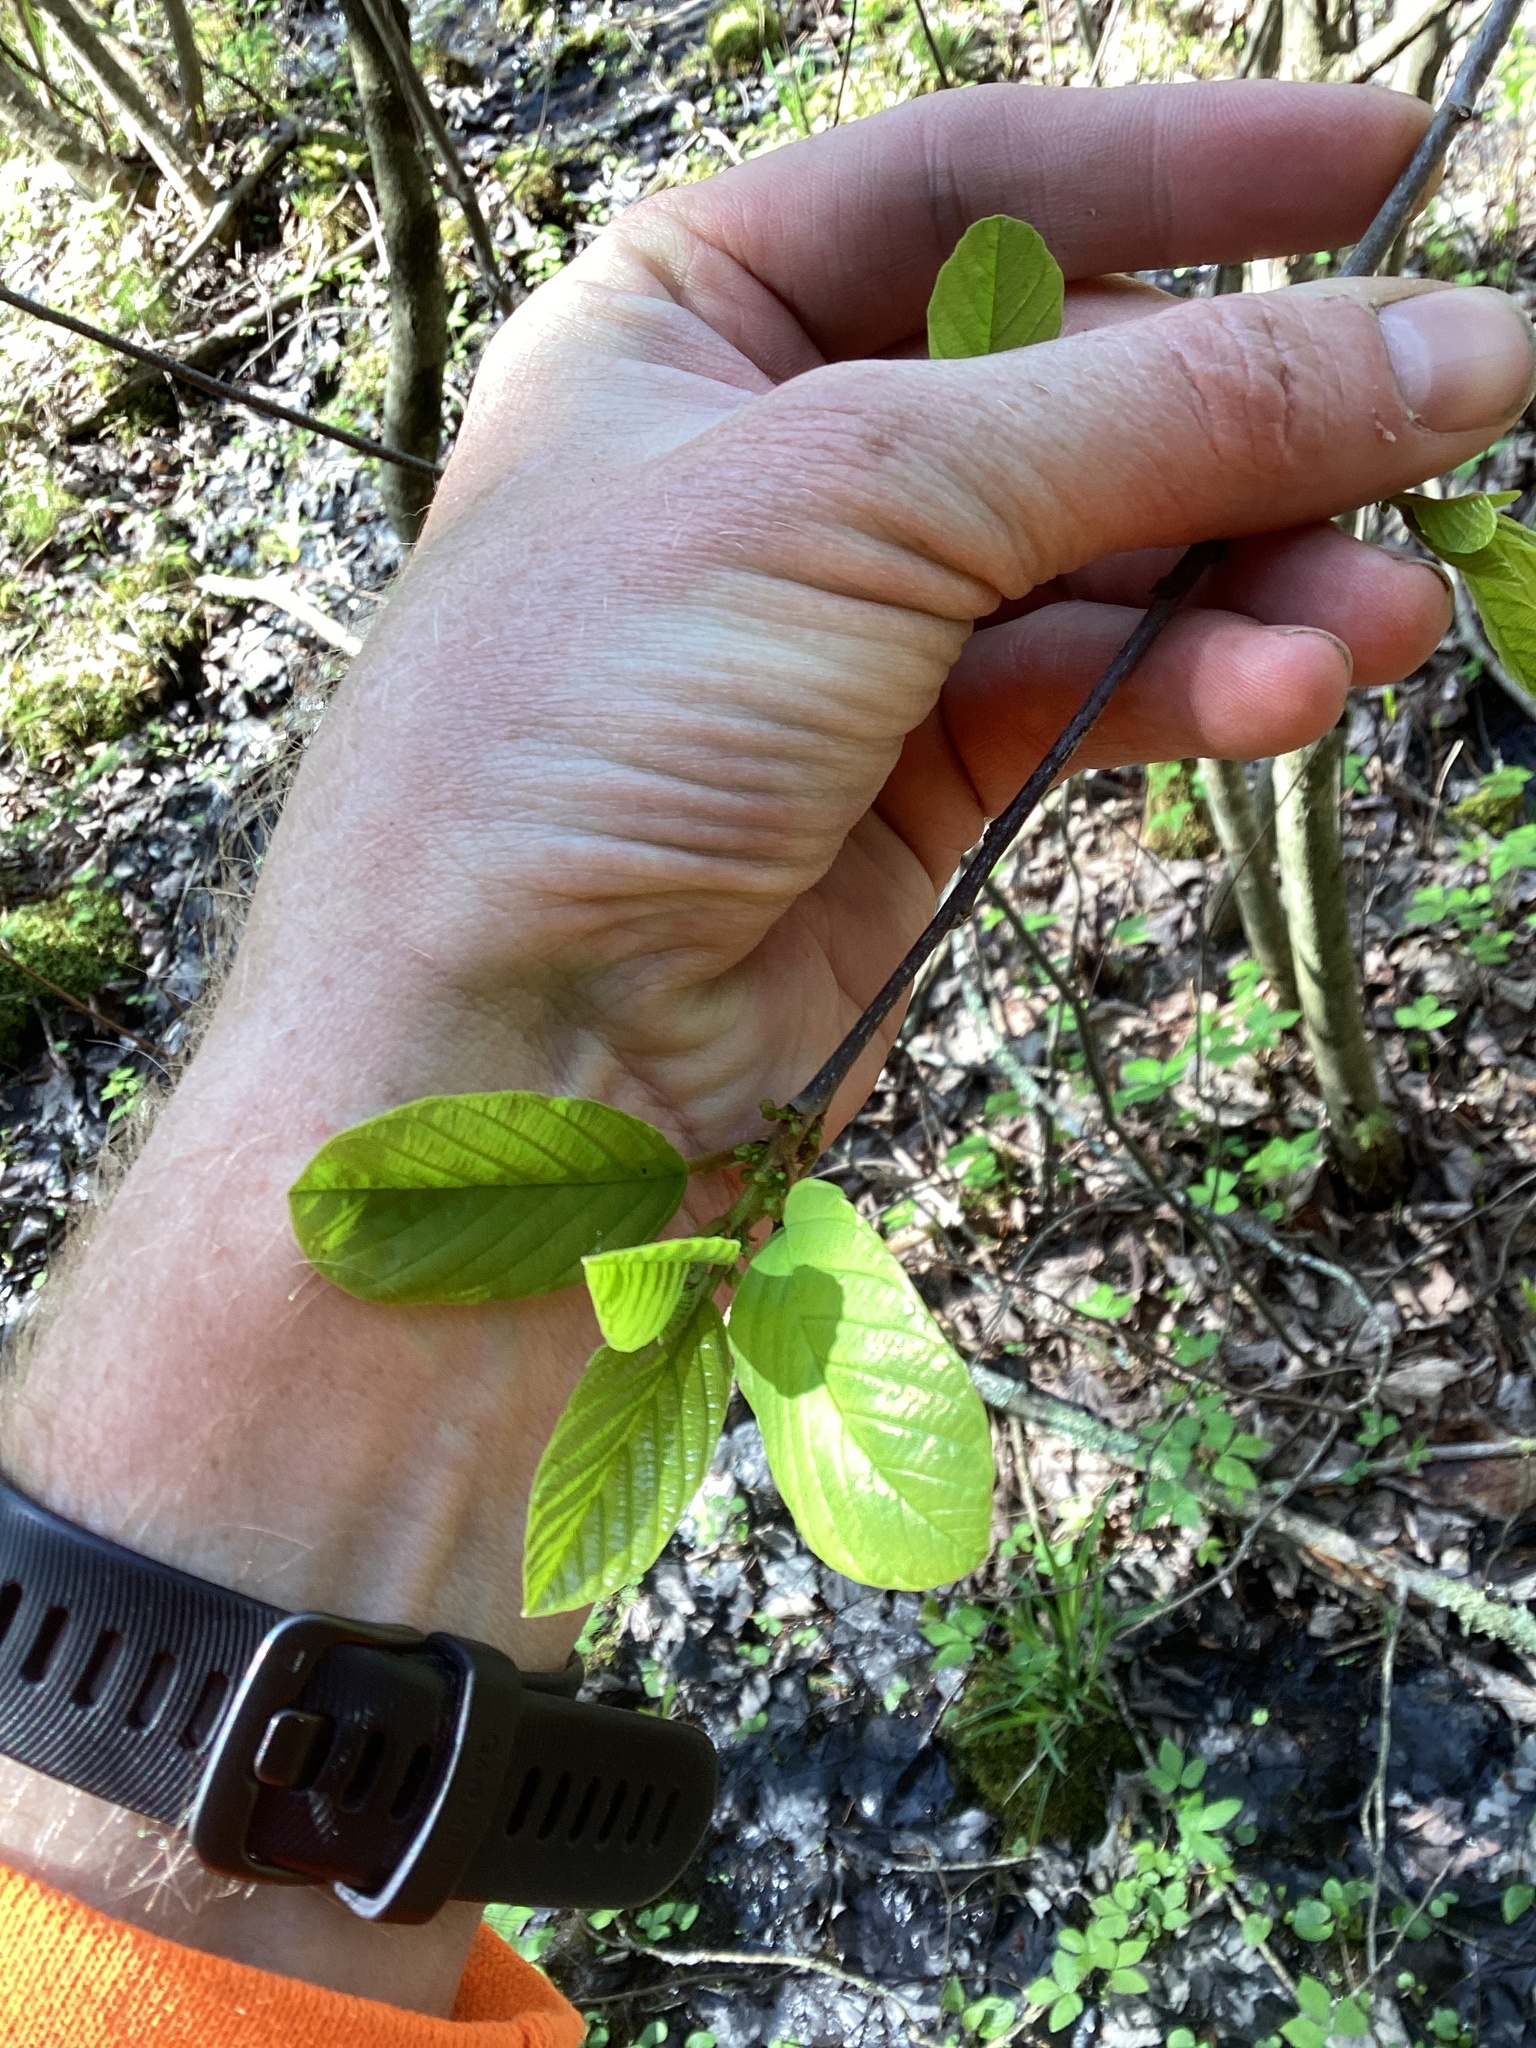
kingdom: Plantae
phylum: Tracheophyta
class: Magnoliopsida
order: Rosales
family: Rhamnaceae
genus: Frangula
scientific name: Frangula alnus
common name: Alder buckthorn
